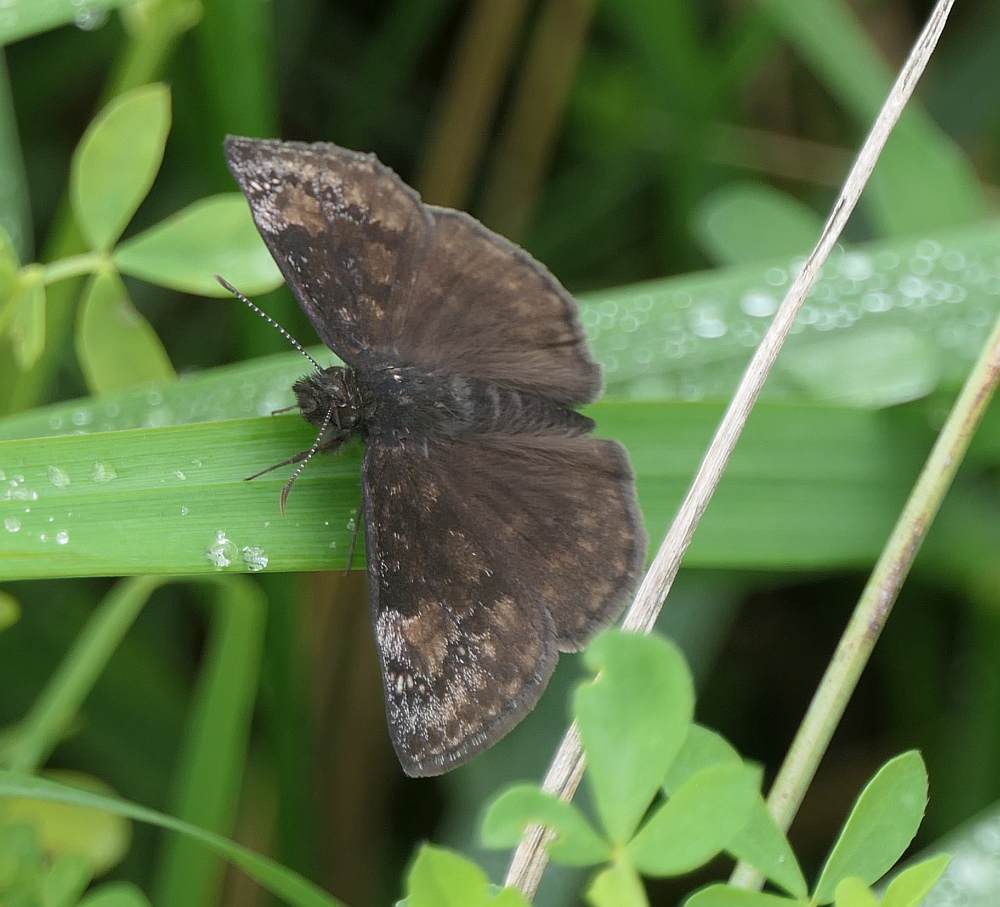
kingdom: Animalia
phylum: Arthropoda
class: Insecta
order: Lepidoptera
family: Hesperiidae
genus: Erynnis
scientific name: Erynnis baptisiae
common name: Wild indigo duskywing
